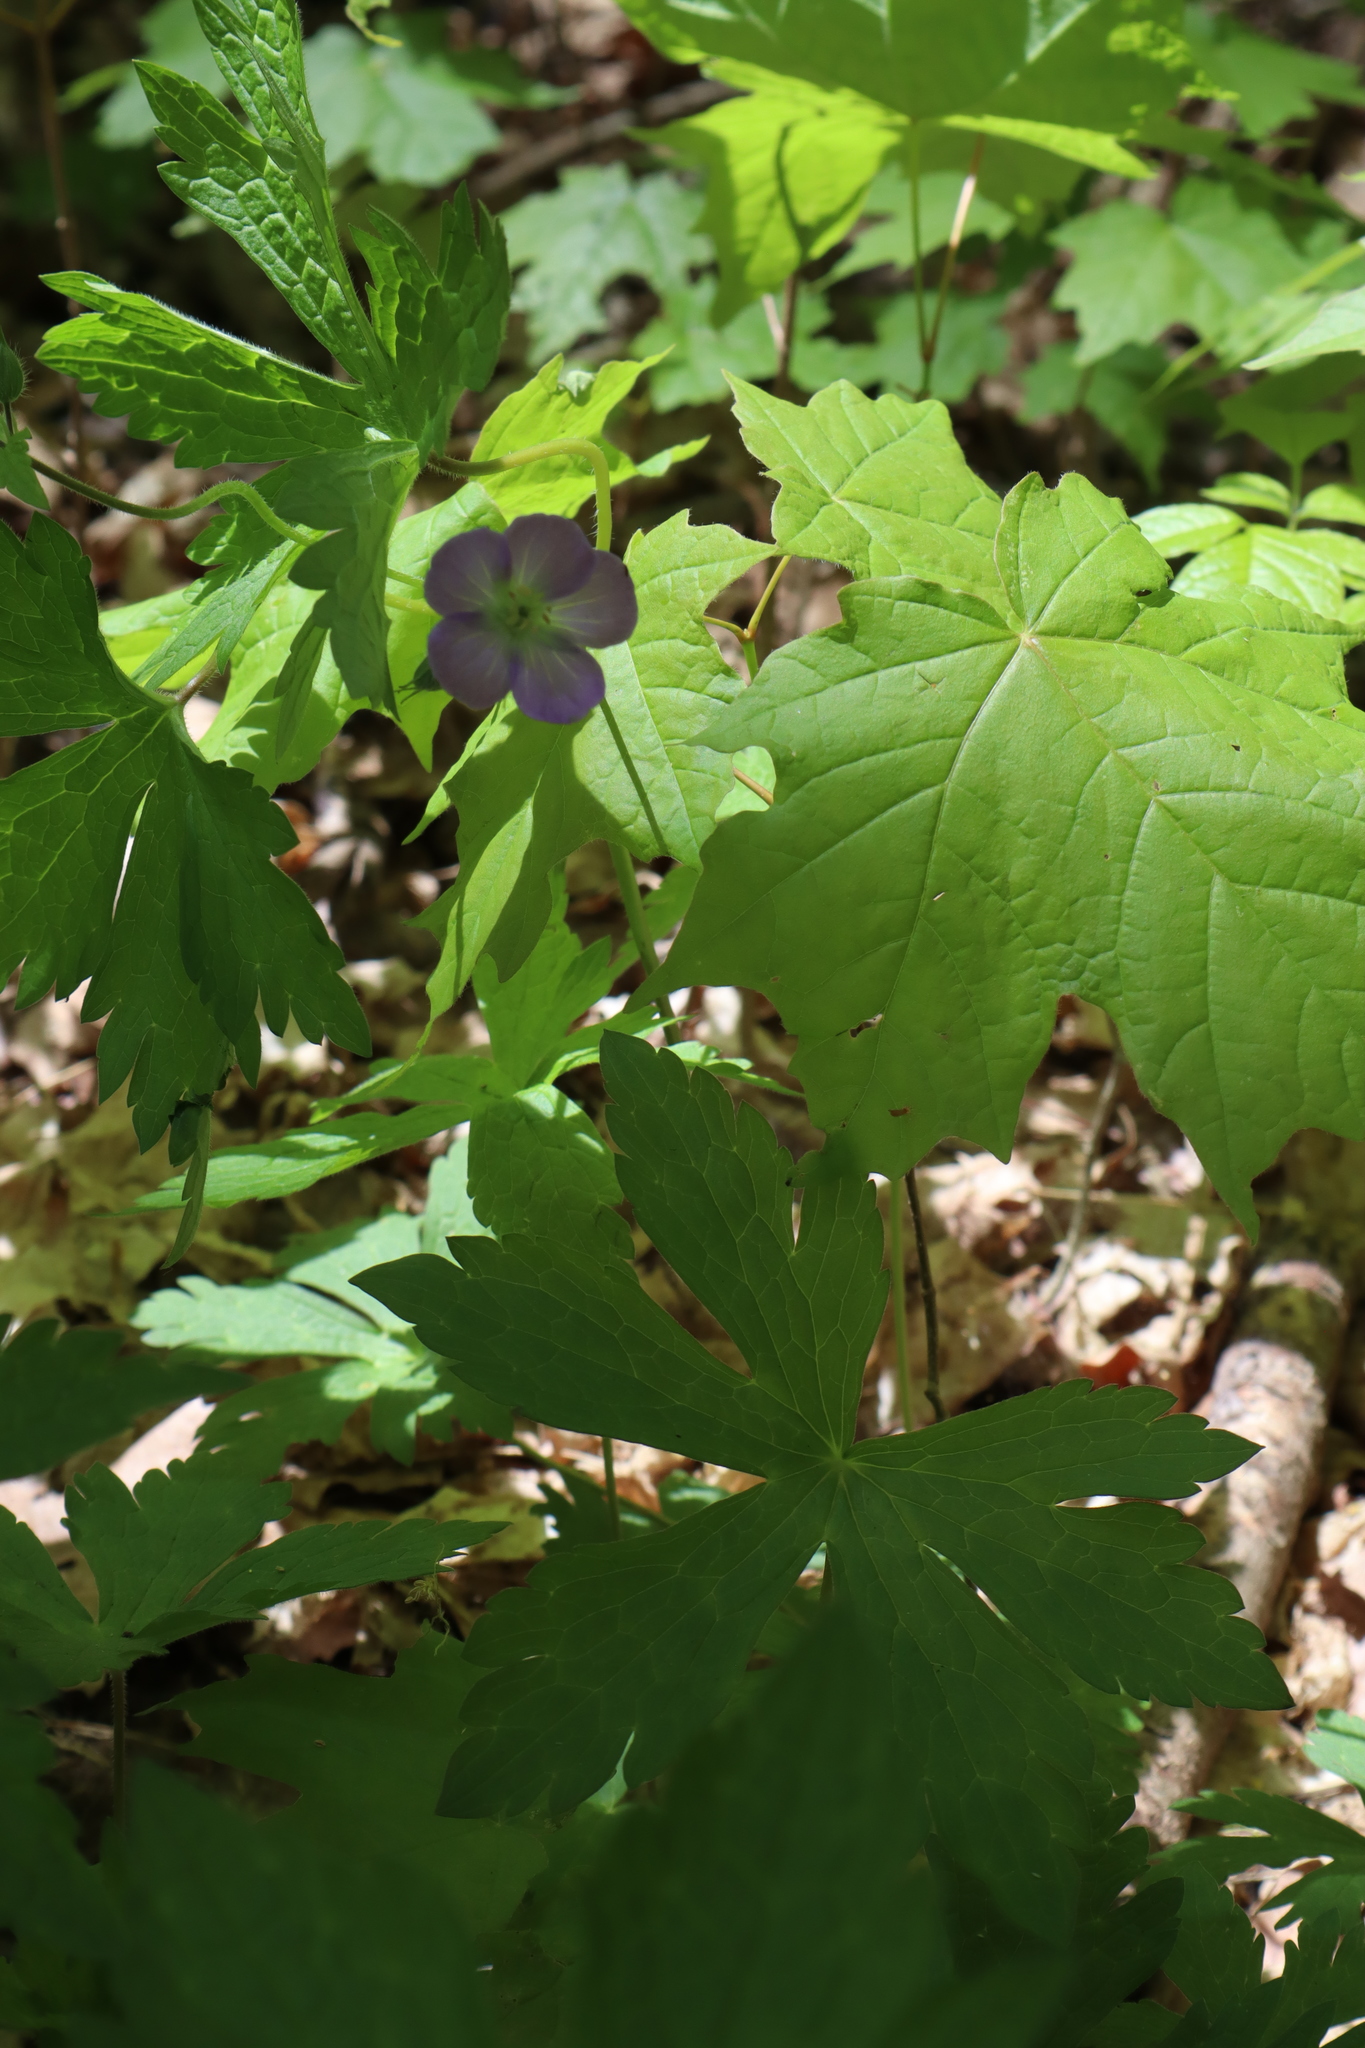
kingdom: Plantae
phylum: Tracheophyta
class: Magnoliopsida
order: Geraniales
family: Geraniaceae
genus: Geranium
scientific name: Geranium maculatum
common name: Spotted geranium
